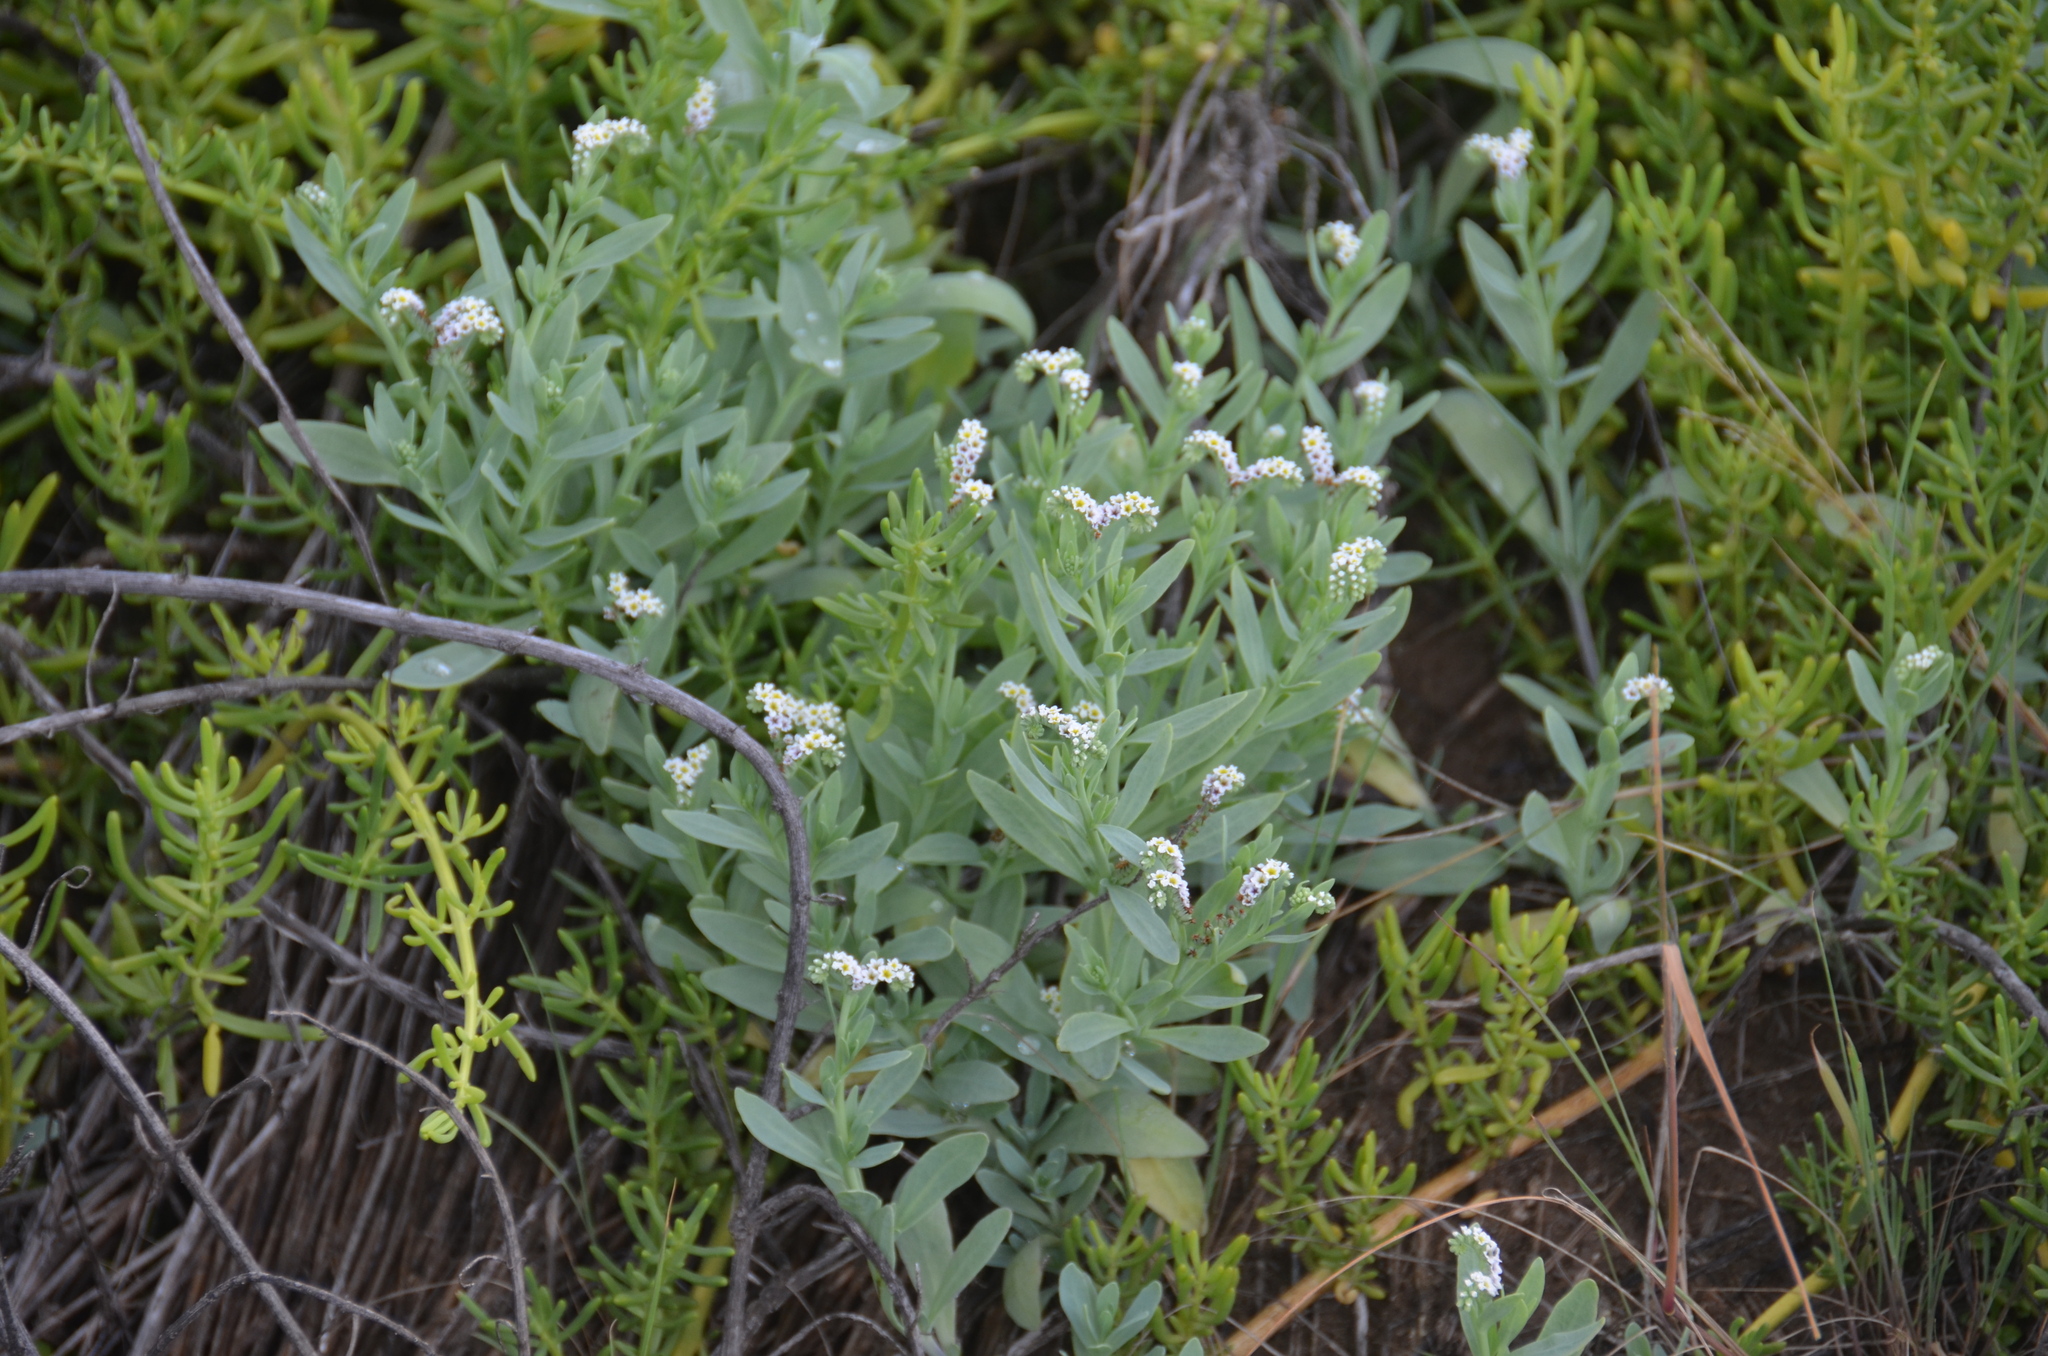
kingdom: Plantae
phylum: Tracheophyta
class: Magnoliopsida
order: Boraginales
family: Heliotropiaceae
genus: Heliotropium
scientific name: Heliotropium curassavicum
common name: Seaside heliotrope
